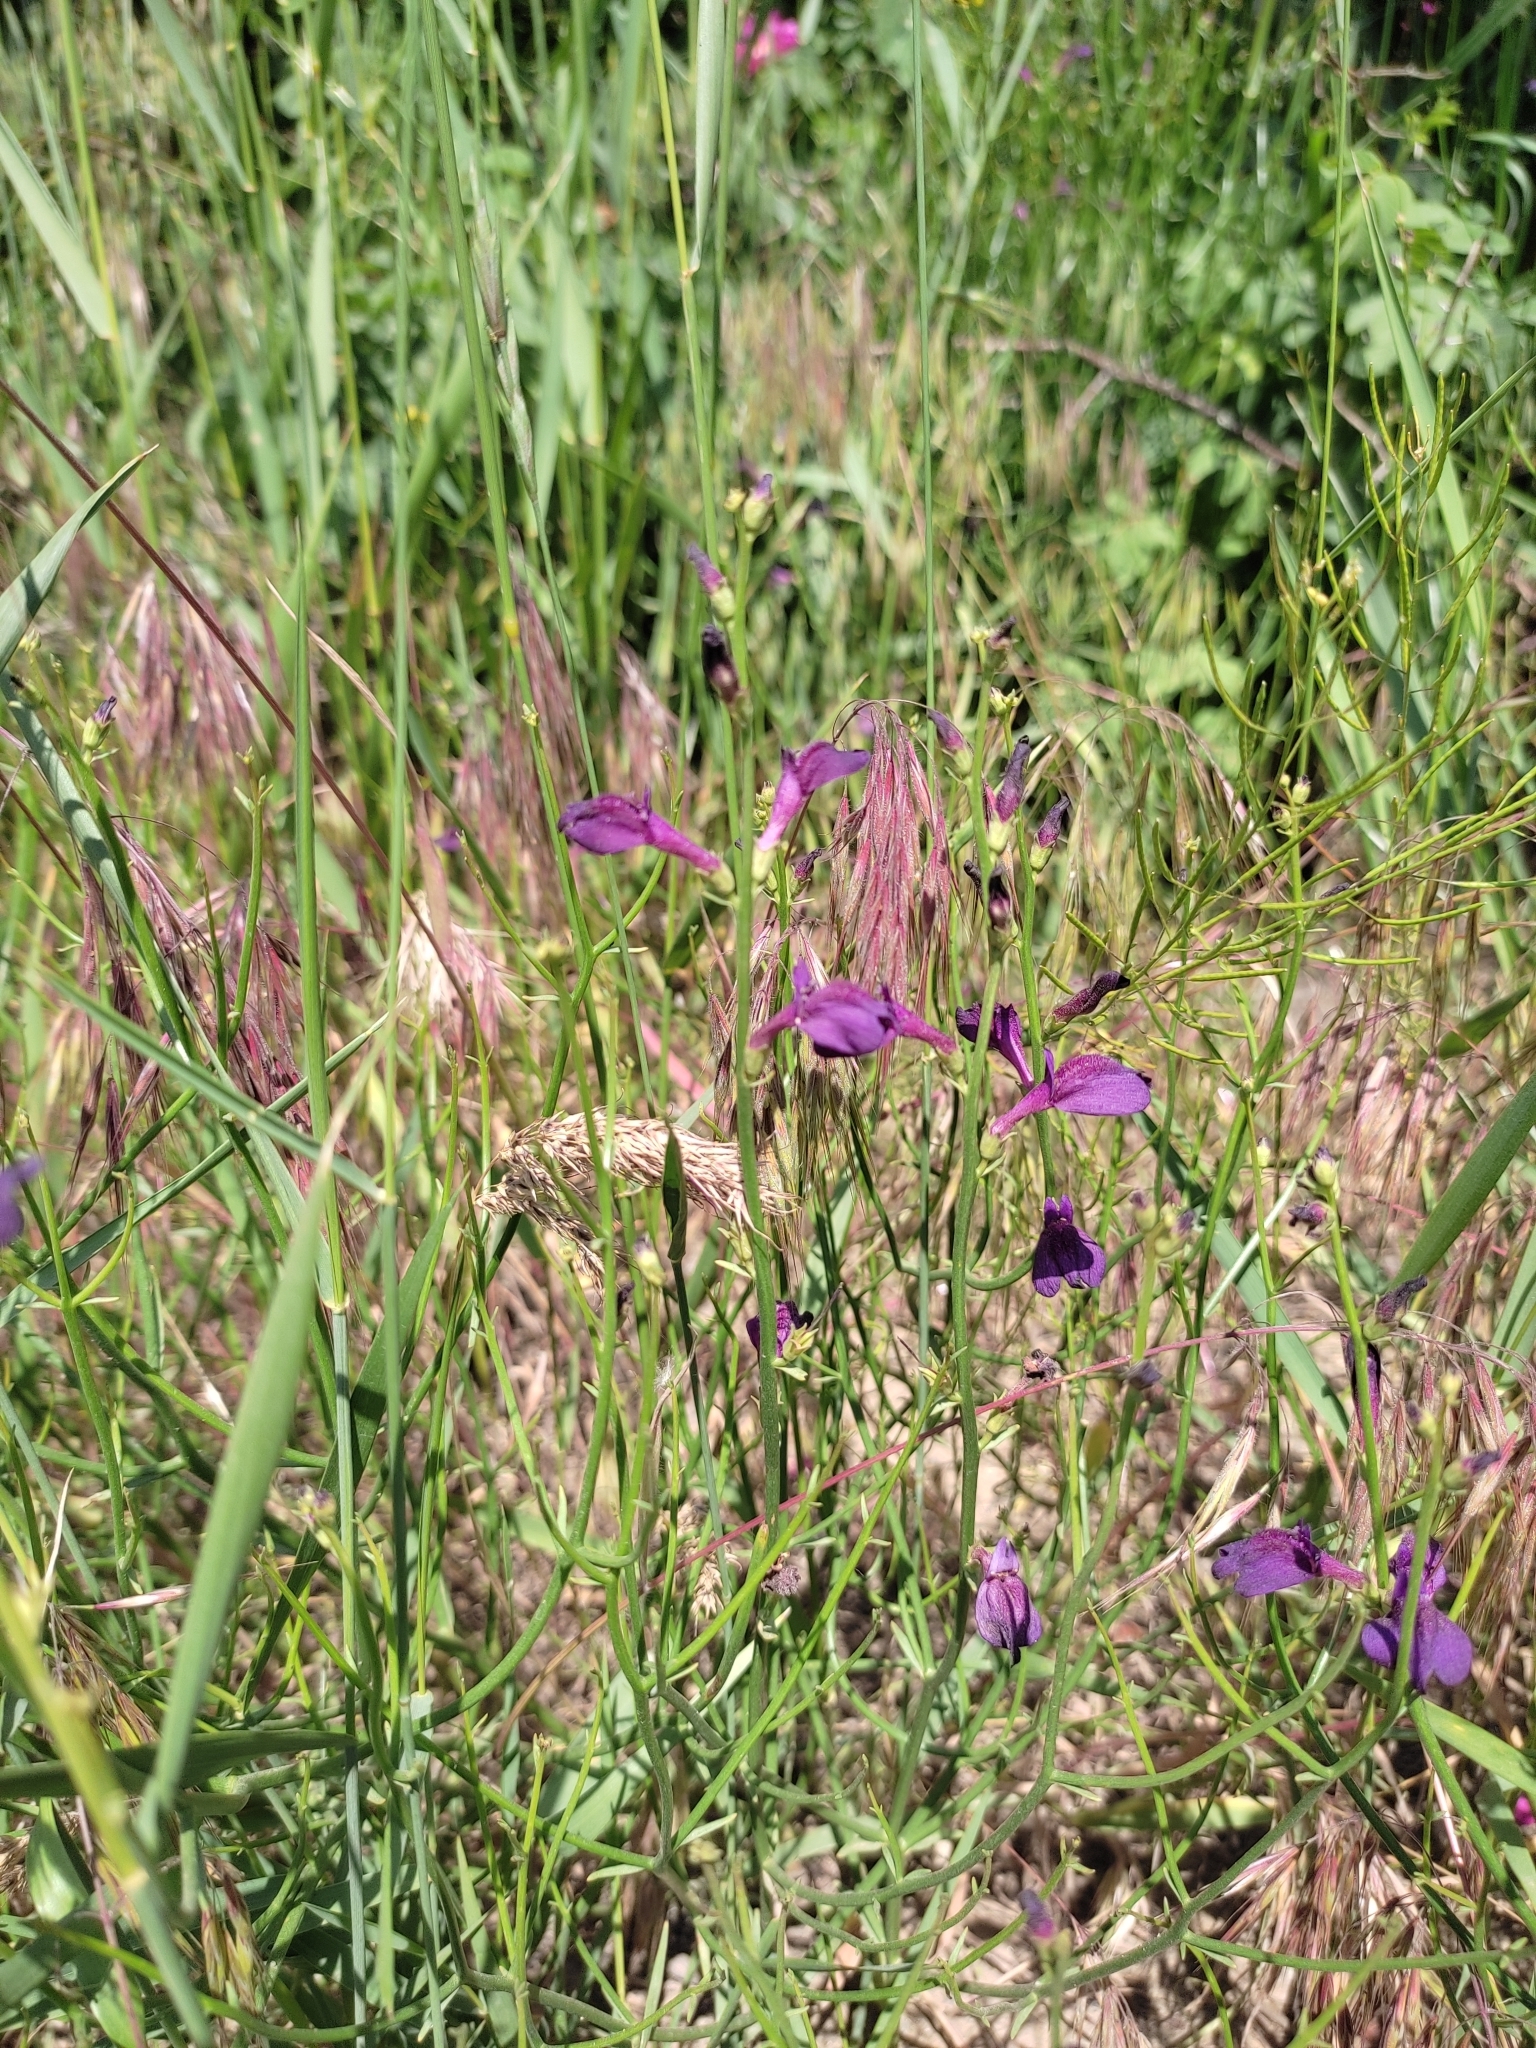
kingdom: Plantae
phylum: Tracheophyta
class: Magnoliopsida
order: Lamiales
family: Mazaceae
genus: Dodartia
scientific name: Dodartia orientalis
